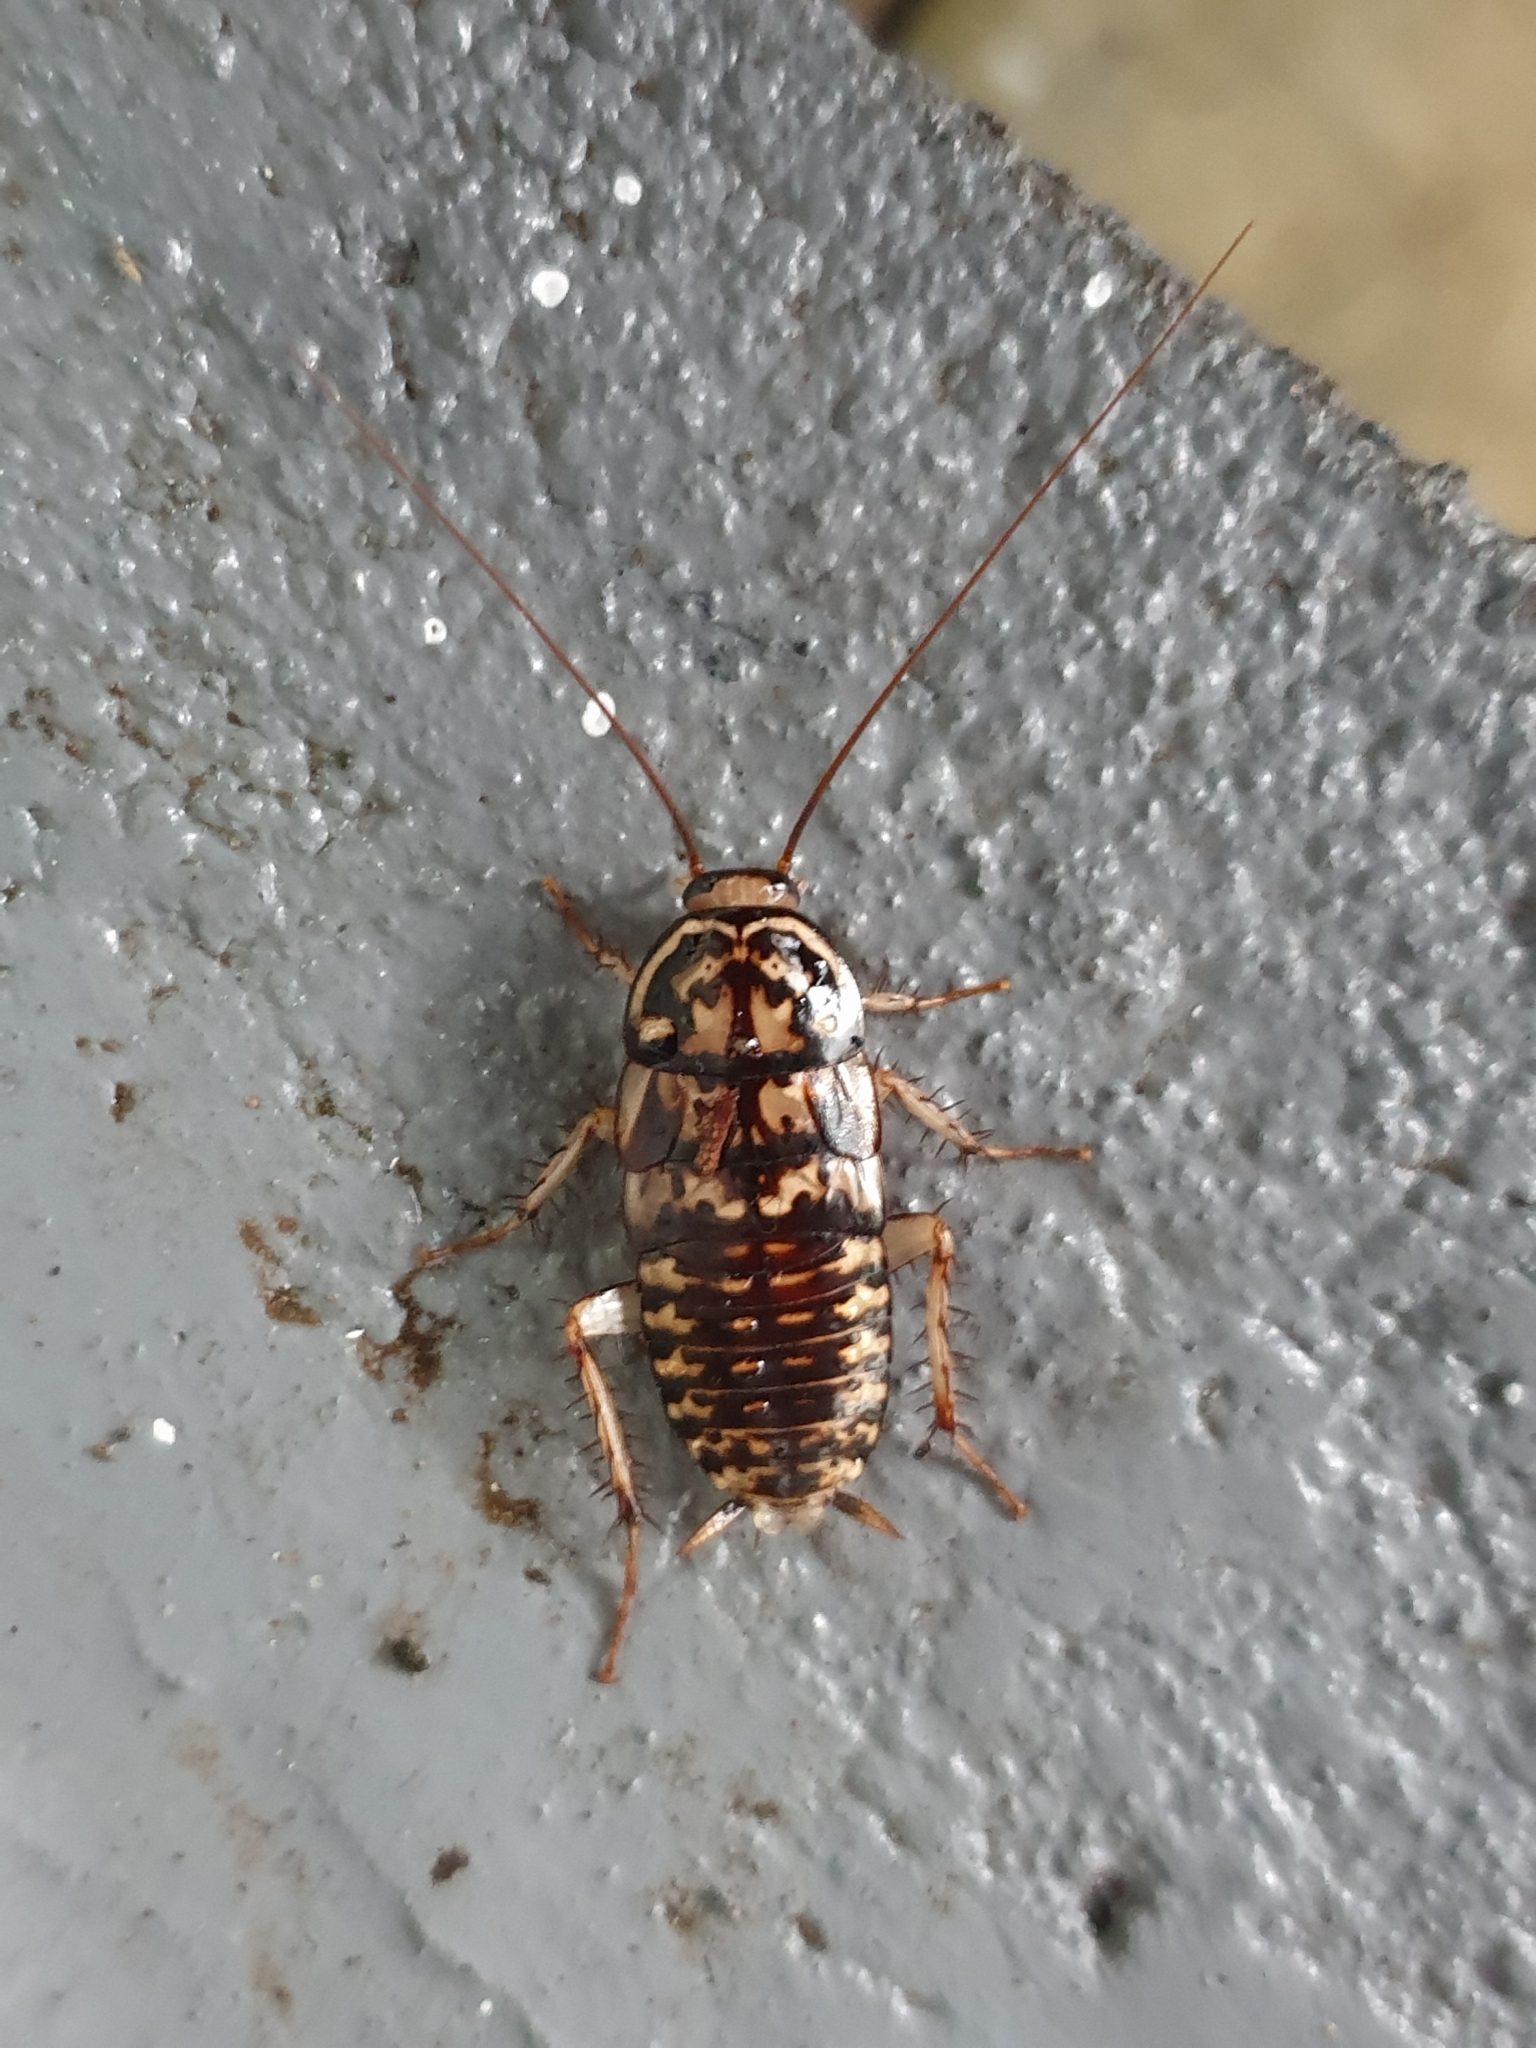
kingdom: Animalia
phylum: Arthropoda
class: Insecta
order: Blattodea
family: Blattidae
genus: Neostylopyga
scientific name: Neostylopyga rhombifolia
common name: Harlequin cockroach
